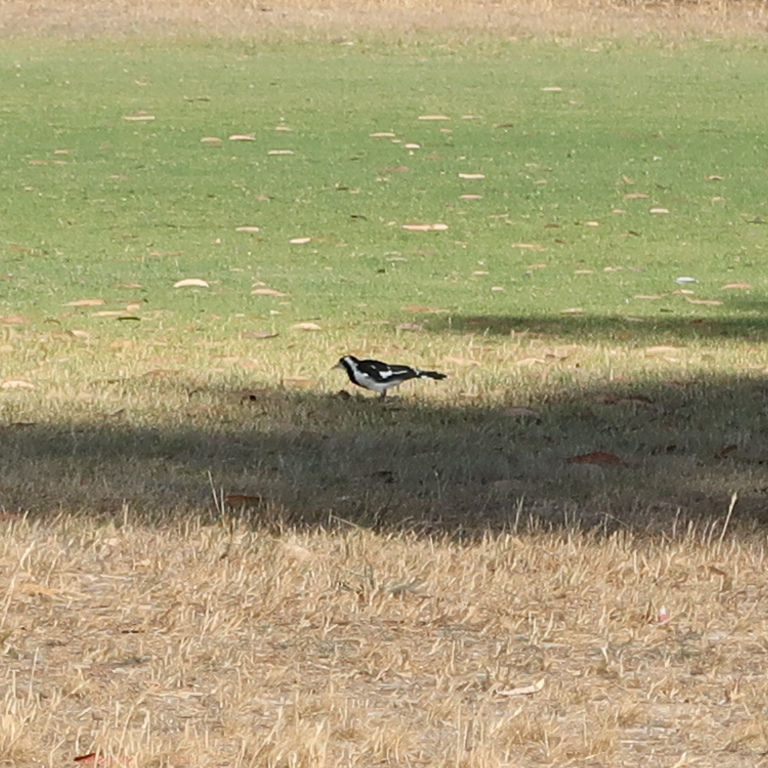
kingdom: Animalia
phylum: Chordata
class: Aves
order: Passeriformes
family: Monarchidae
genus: Grallina
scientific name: Grallina cyanoleuca
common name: Magpie-lark
